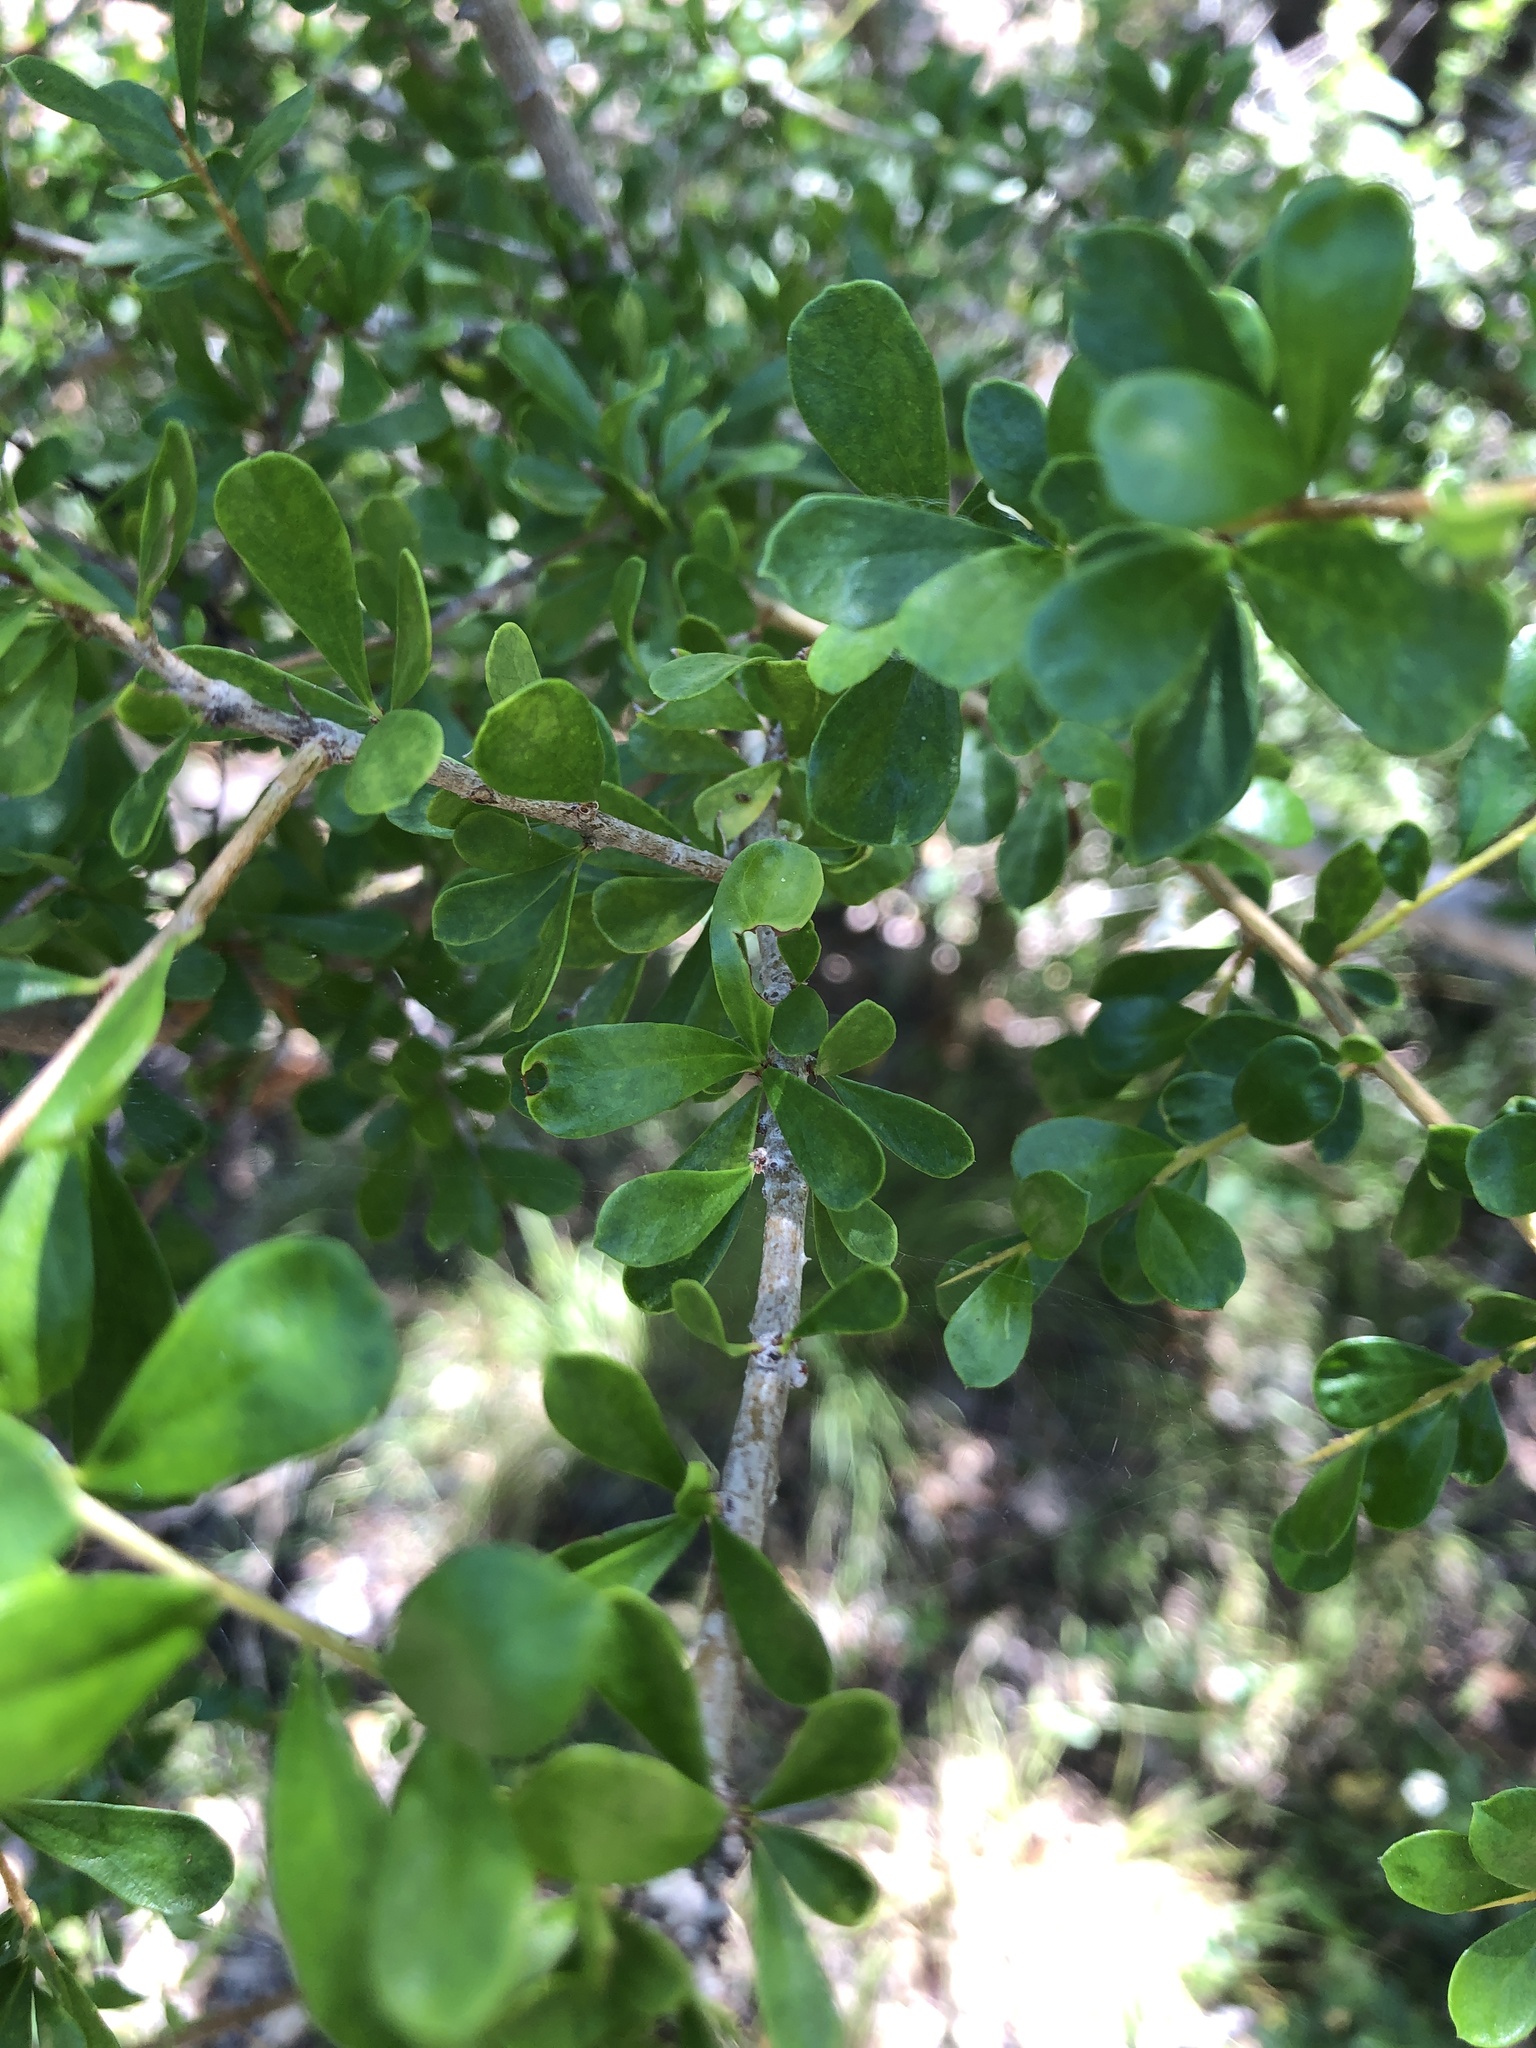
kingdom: Plantae
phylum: Tracheophyta
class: Magnoliopsida
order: Apiales
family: Pittosporaceae
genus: Pittosporum
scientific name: Pittosporum spinescens
